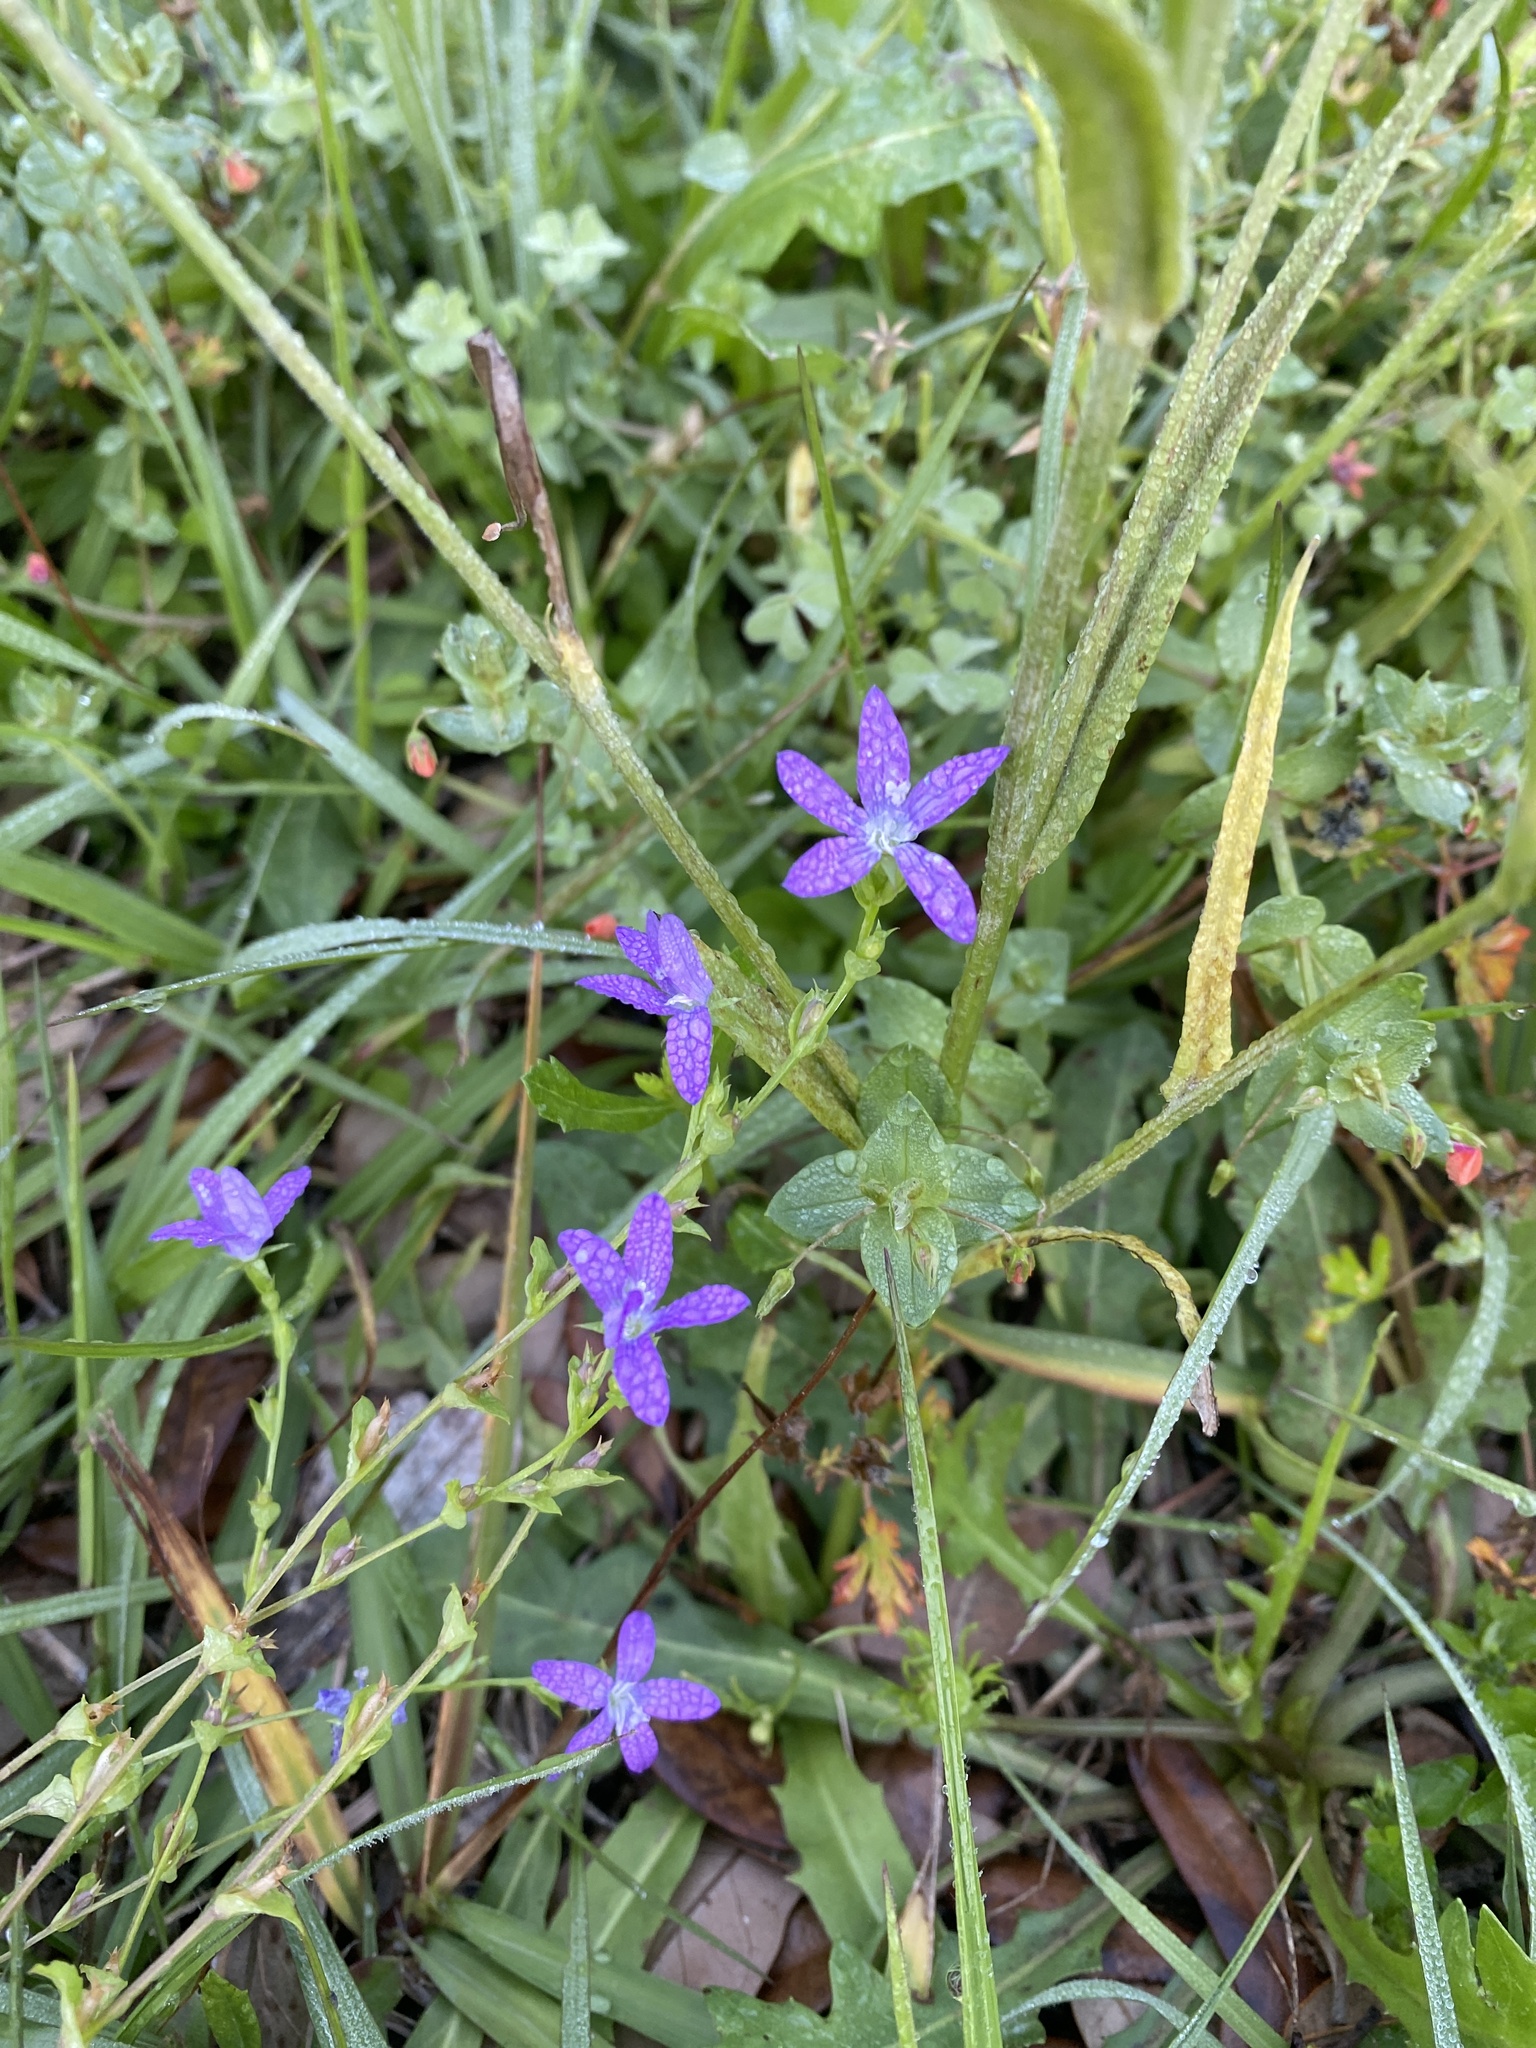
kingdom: Plantae
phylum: Tracheophyta
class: Magnoliopsida
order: Asterales
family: Campanulaceae
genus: Triodanis
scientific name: Triodanis biflora
